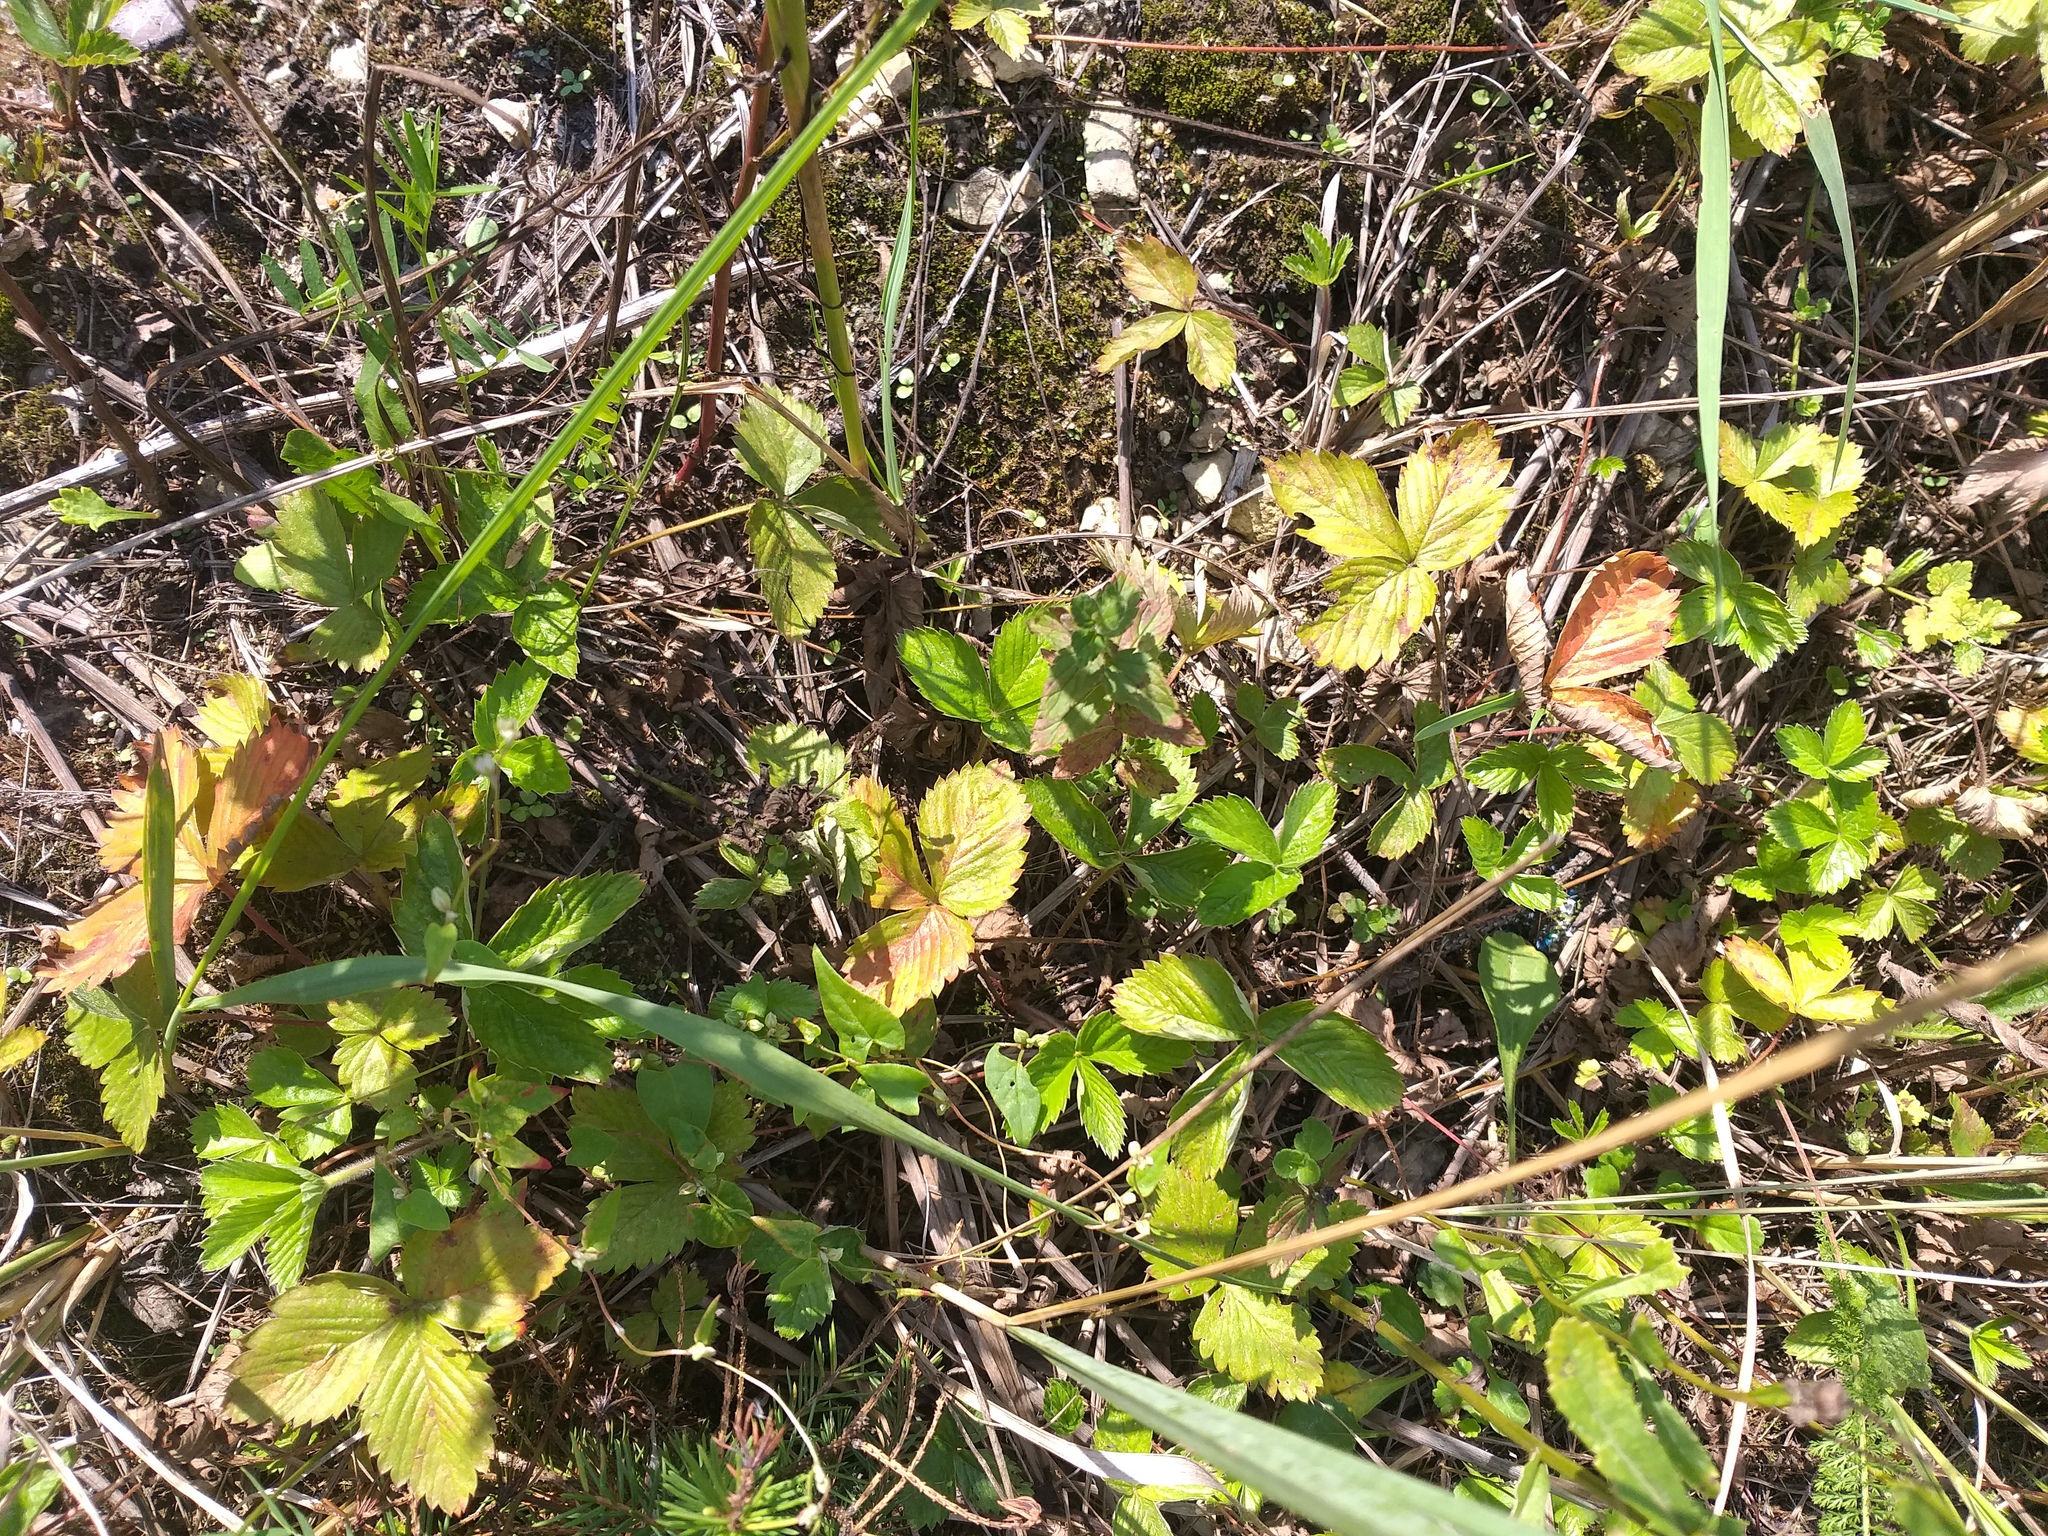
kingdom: Plantae
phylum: Tracheophyta
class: Magnoliopsida
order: Rosales
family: Rosaceae
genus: Fragaria
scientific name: Fragaria vesca
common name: Wild strawberry
